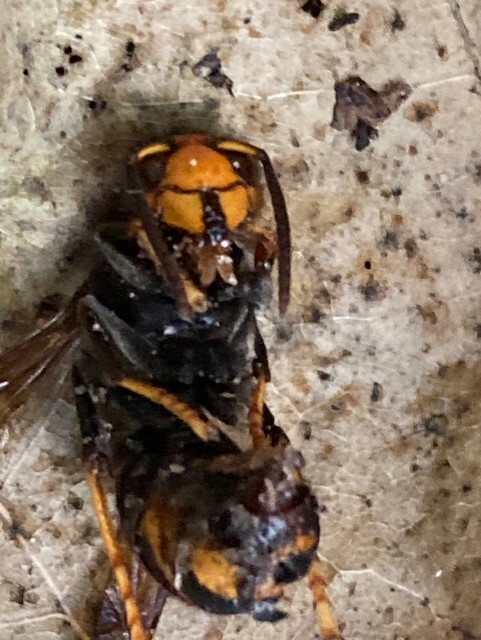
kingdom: Animalia
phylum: Arthropoda
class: Insecta
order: Hymenoptera
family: Vespidae
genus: Vespa
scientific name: Vespa velutina
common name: Asian hornet
